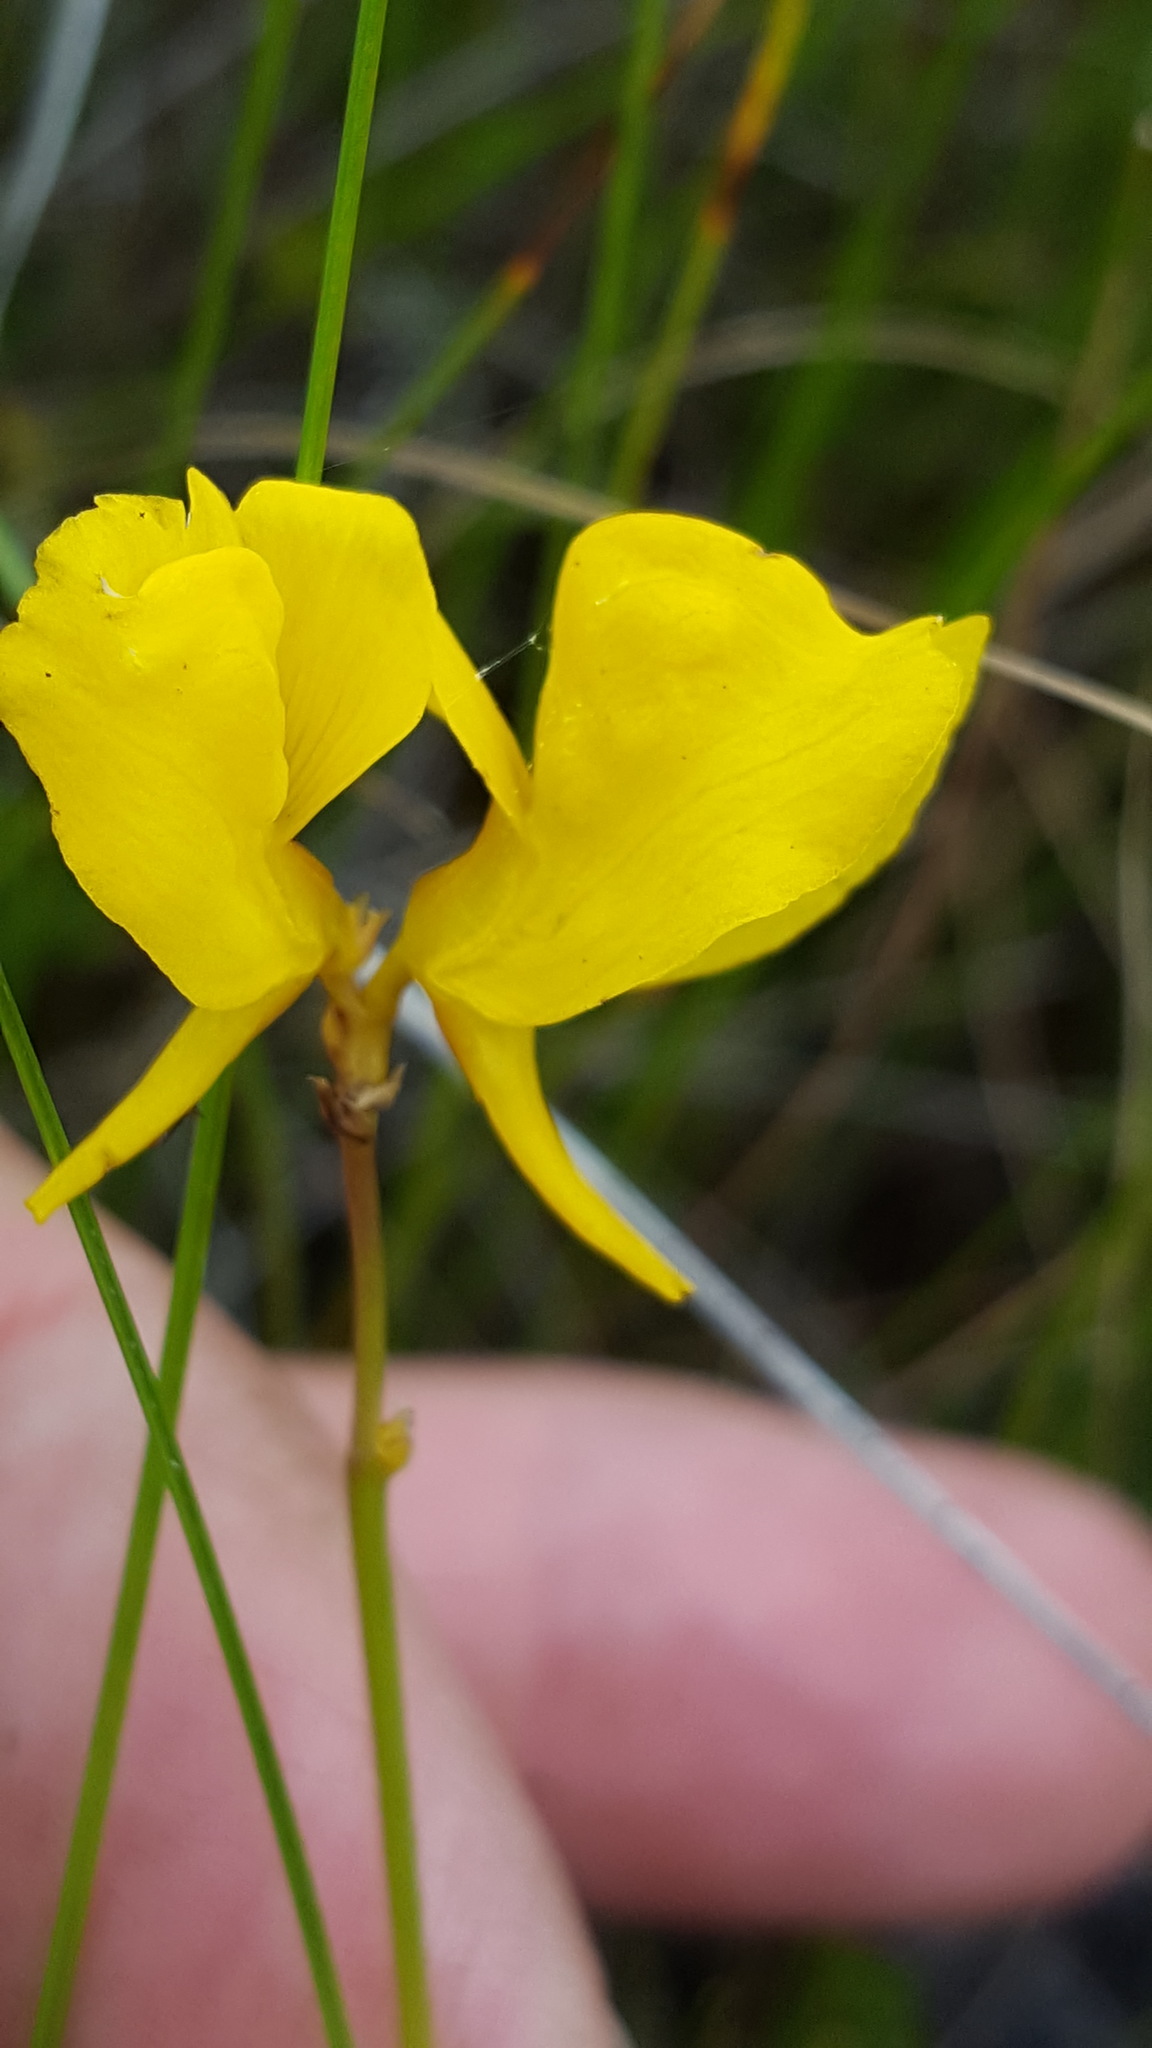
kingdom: Plantae
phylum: Tracheophyta
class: Magnoliopsida
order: Lamiales
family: Lentibulariaceae
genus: Utricularia
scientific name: Utricularia cornuta
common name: Horned bladderwort
